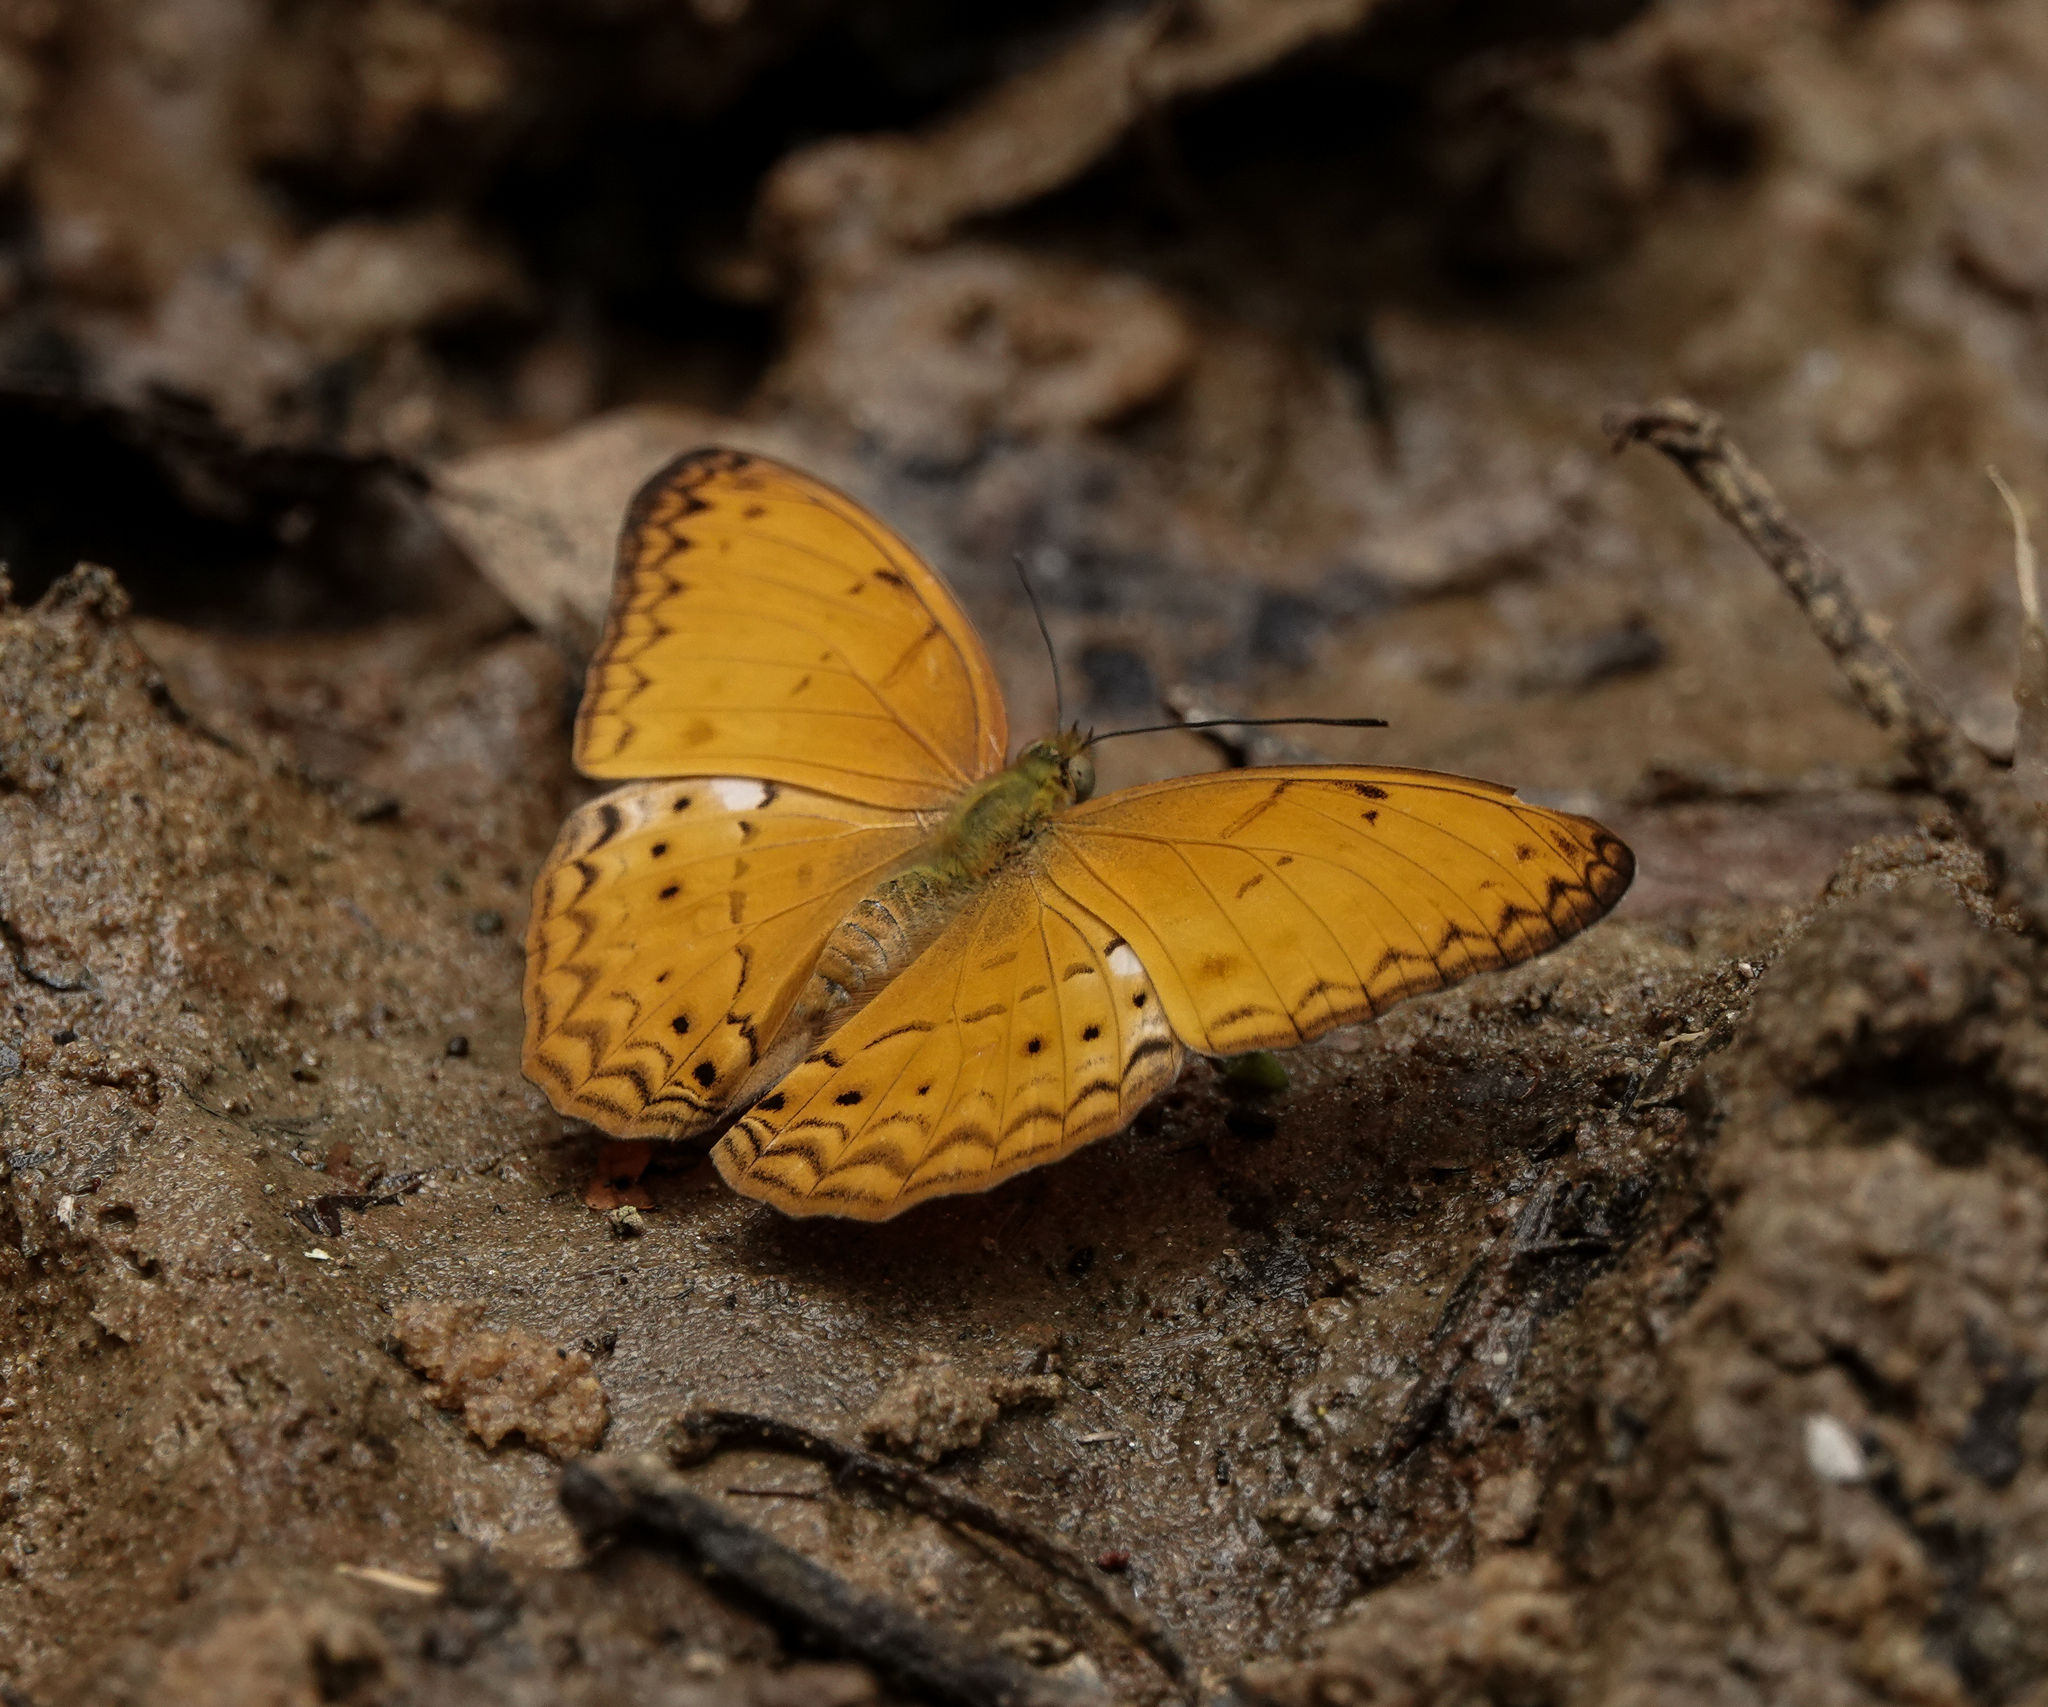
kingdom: Animalia
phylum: Arthropoda
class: Insecta
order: Lepidoptera
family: Nymphalidae
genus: Cirrochroa
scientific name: Cirrochroa tyche
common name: Common yeoman
